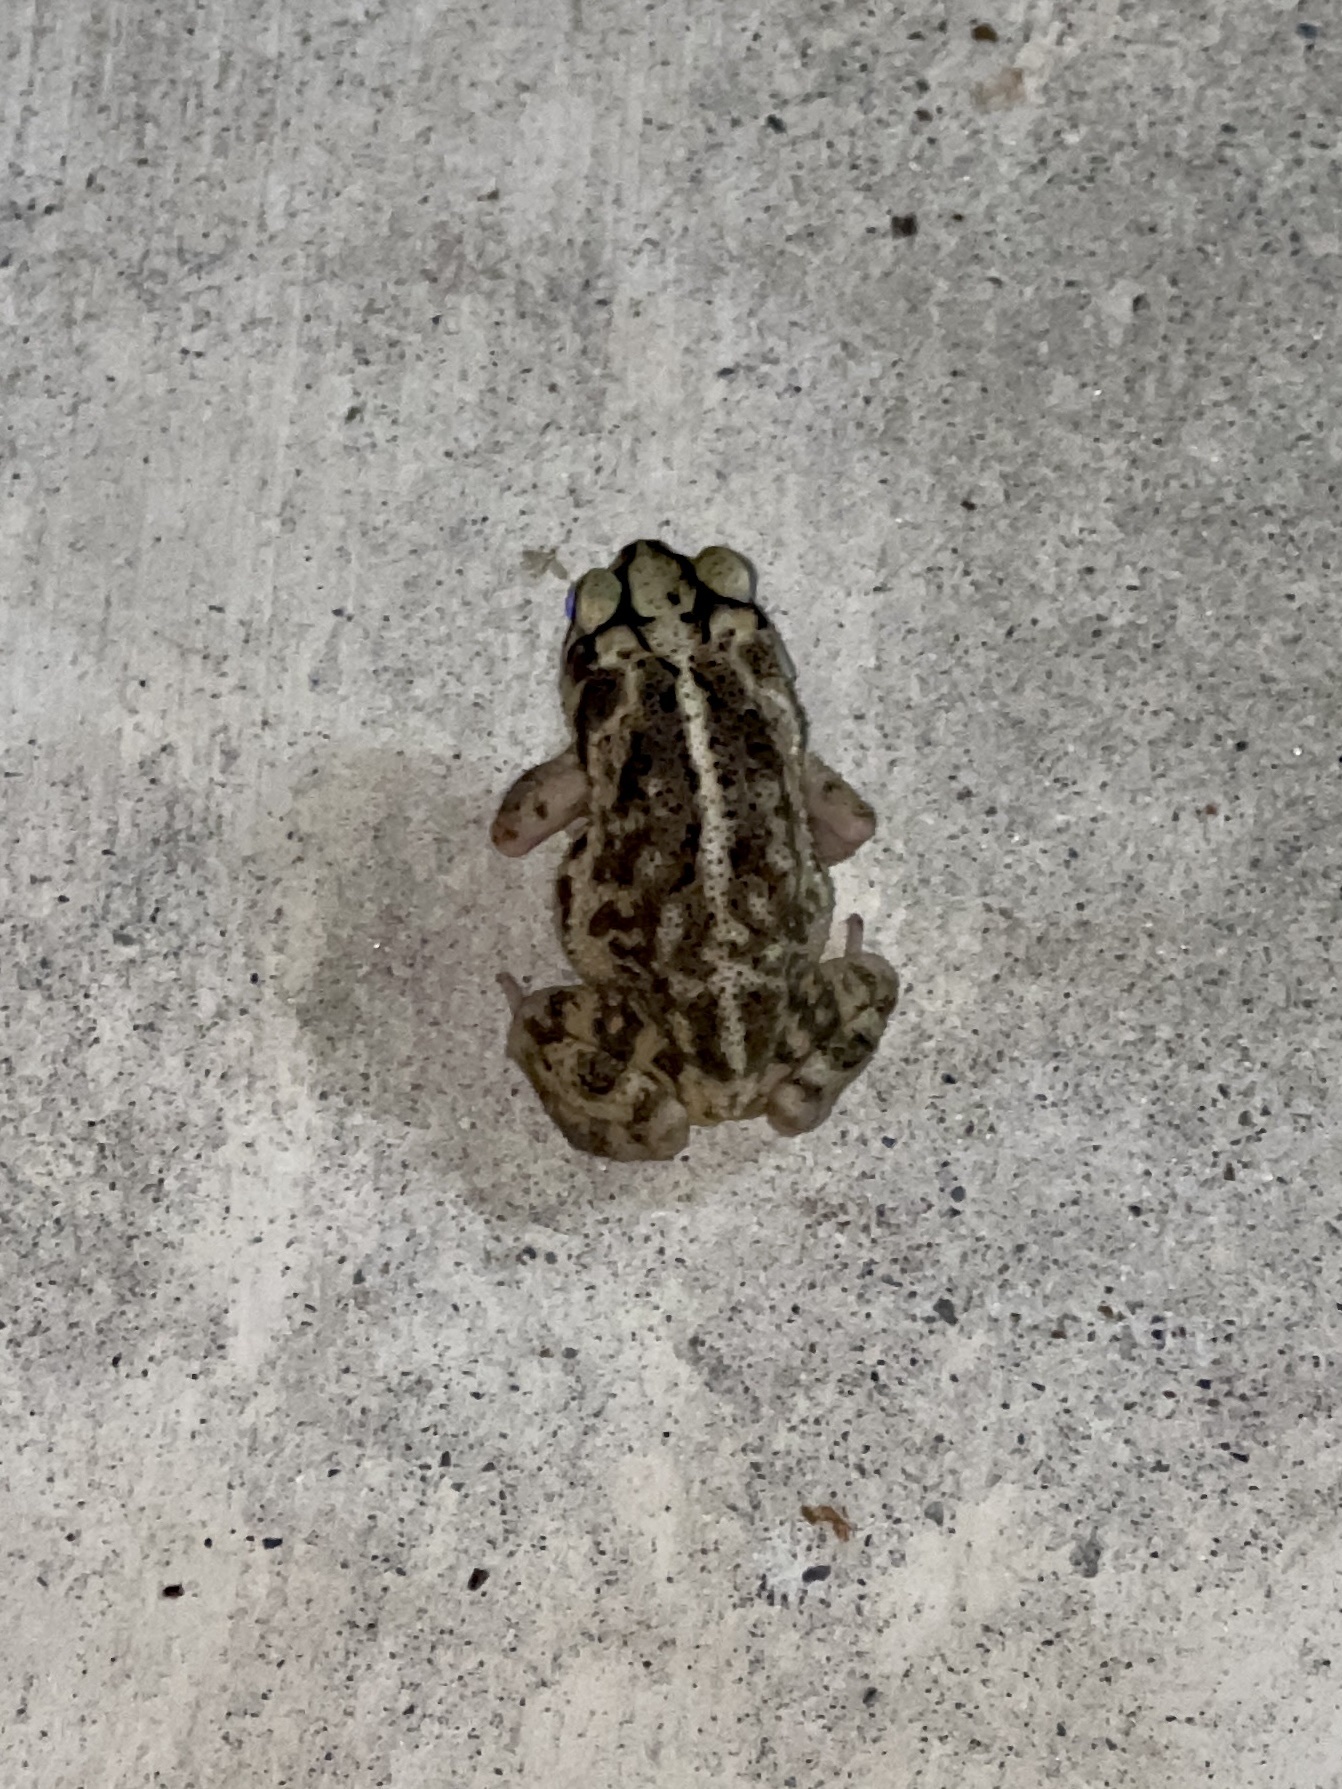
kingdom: Animalia
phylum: Chordata
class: Amphibia
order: Anura
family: Bufonidae
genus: Incilius
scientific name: Incilius nebulifer
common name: Gulf coast toad
